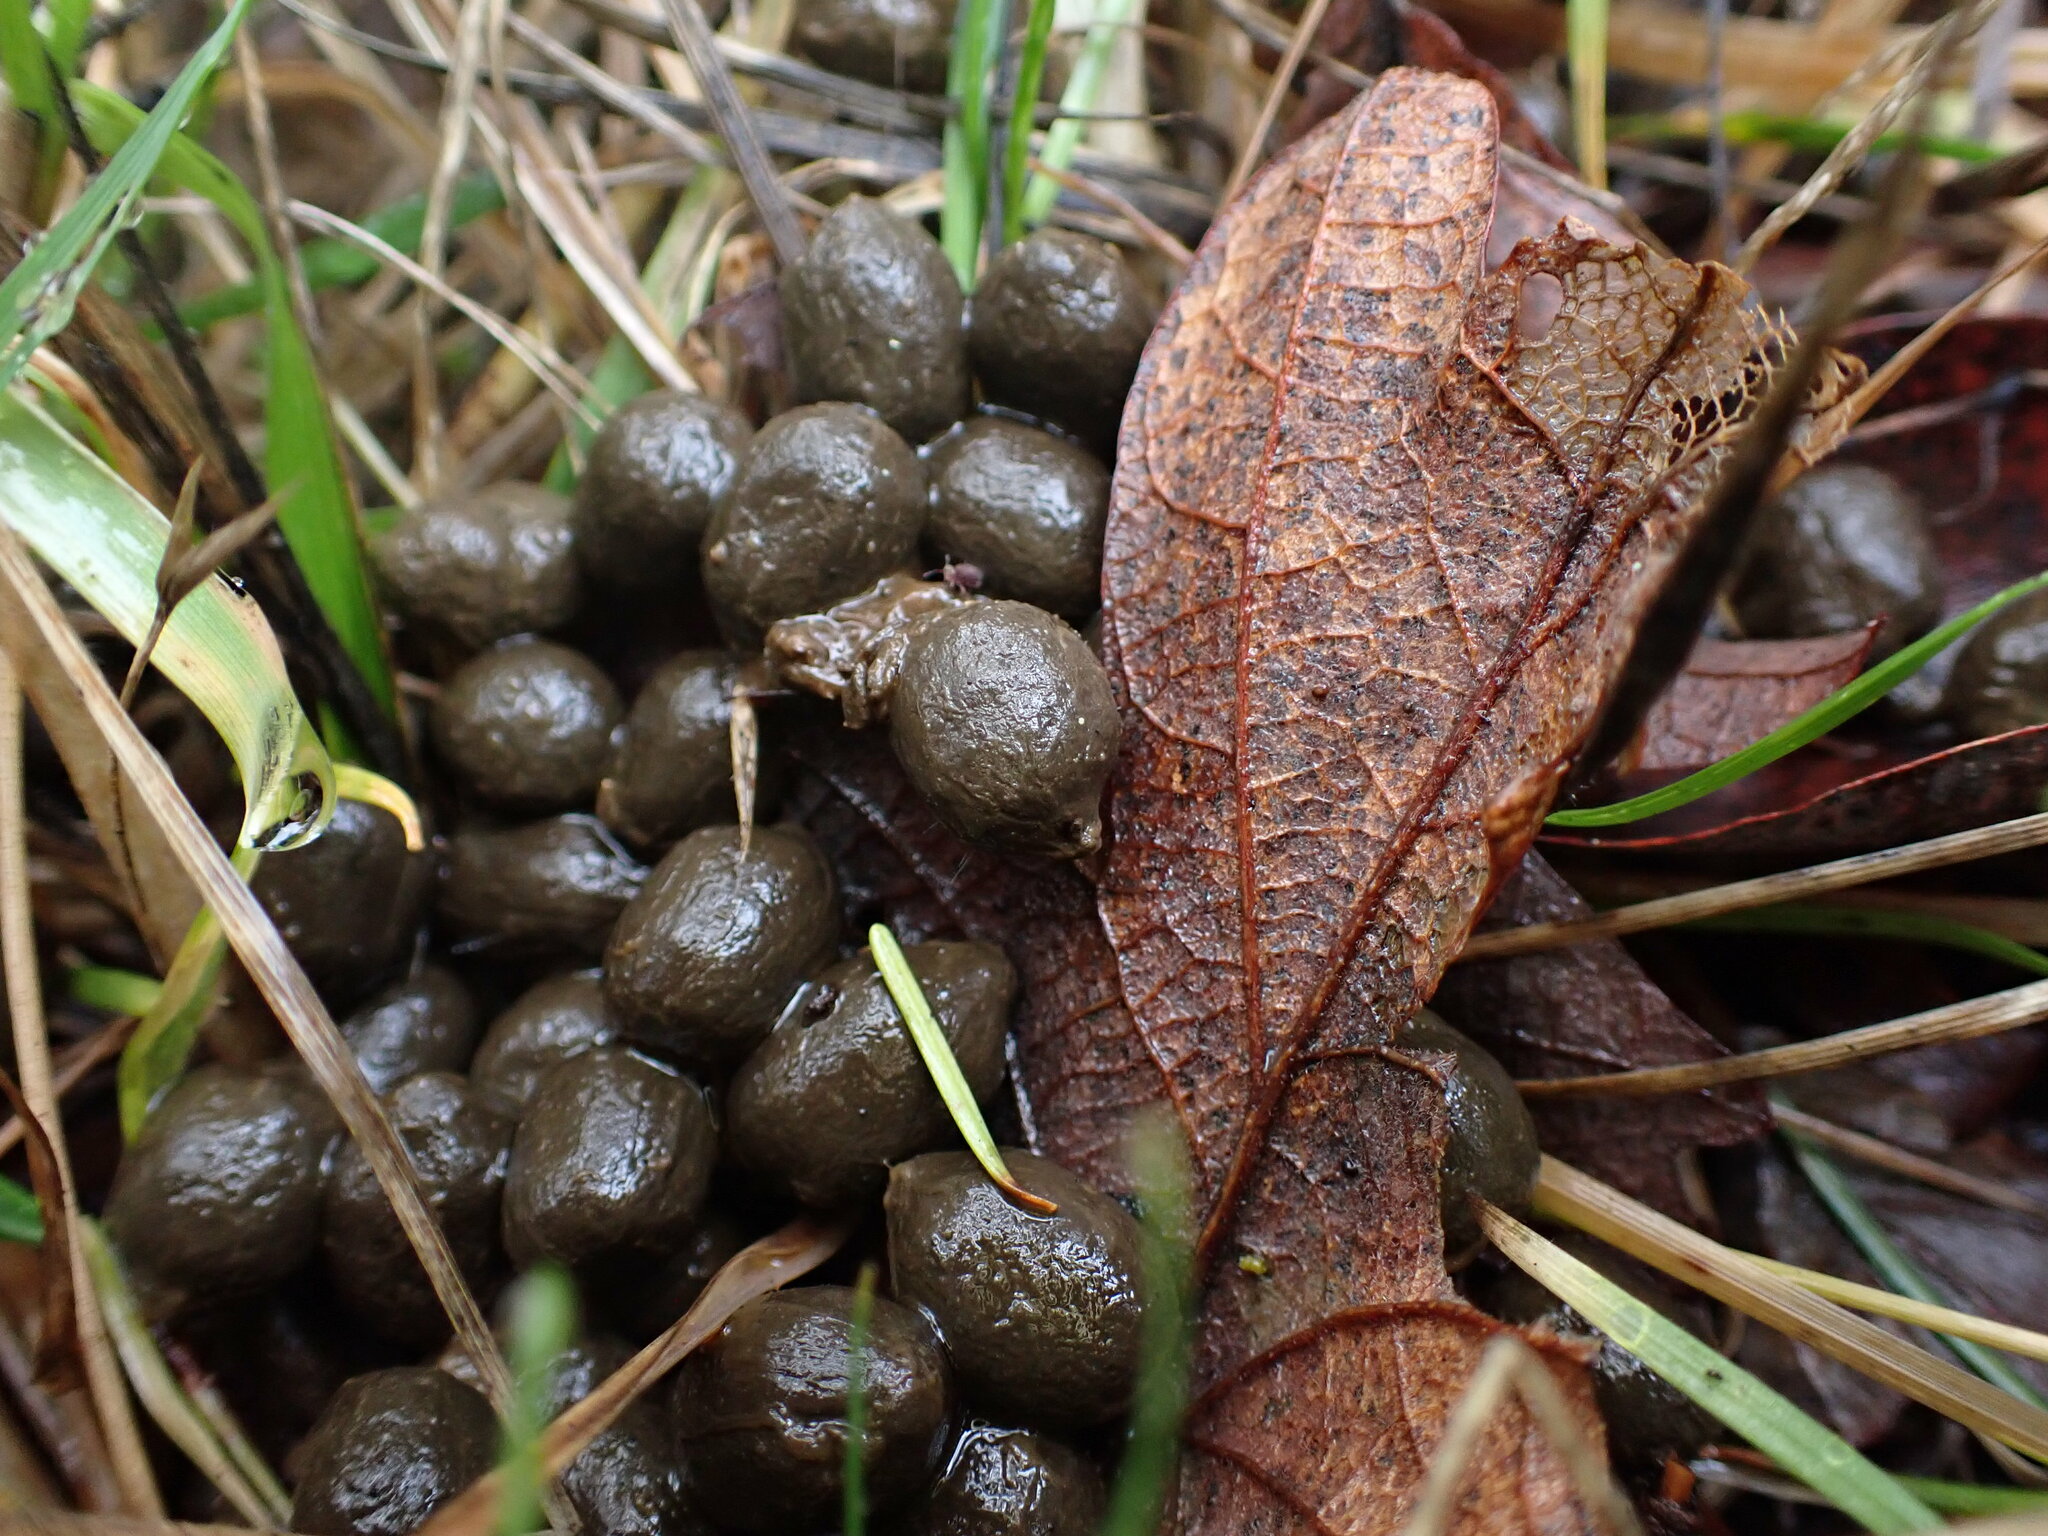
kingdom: Animalia
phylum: Chordata
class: Mammalia
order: Artiodactyla
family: Cervidae
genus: Odocoileus
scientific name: Odocoileus hemionus
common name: Mule deer
